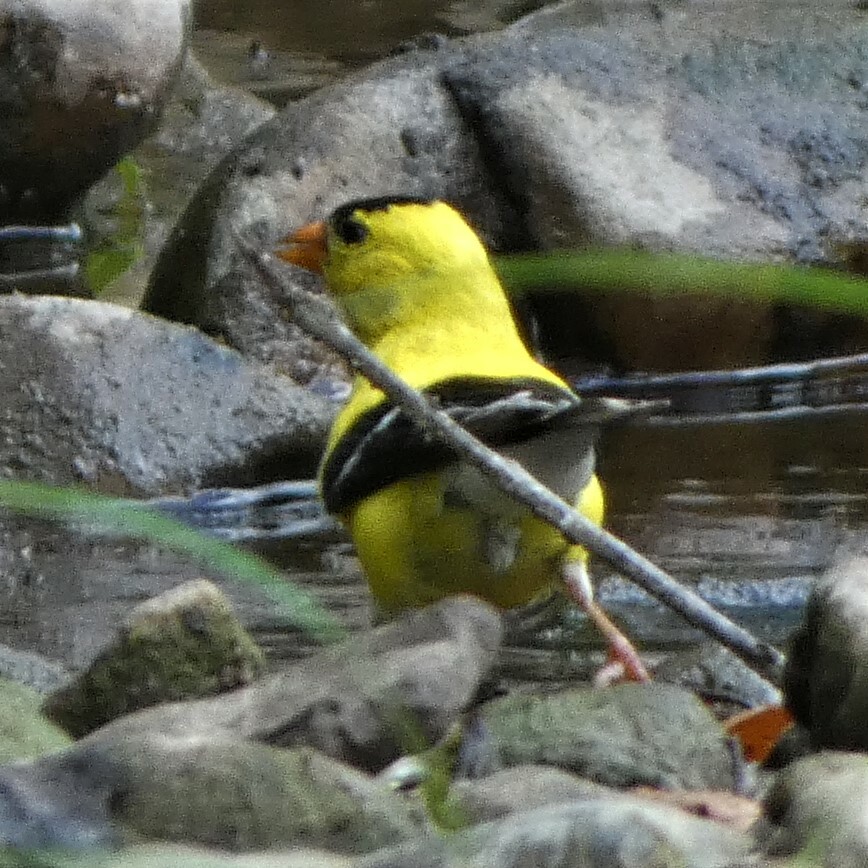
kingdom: Animalia
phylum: Chordata
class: Aves
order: Passeriformes
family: Fringillidae
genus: Spinus
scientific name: Spinus tristis
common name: American goldfinch
